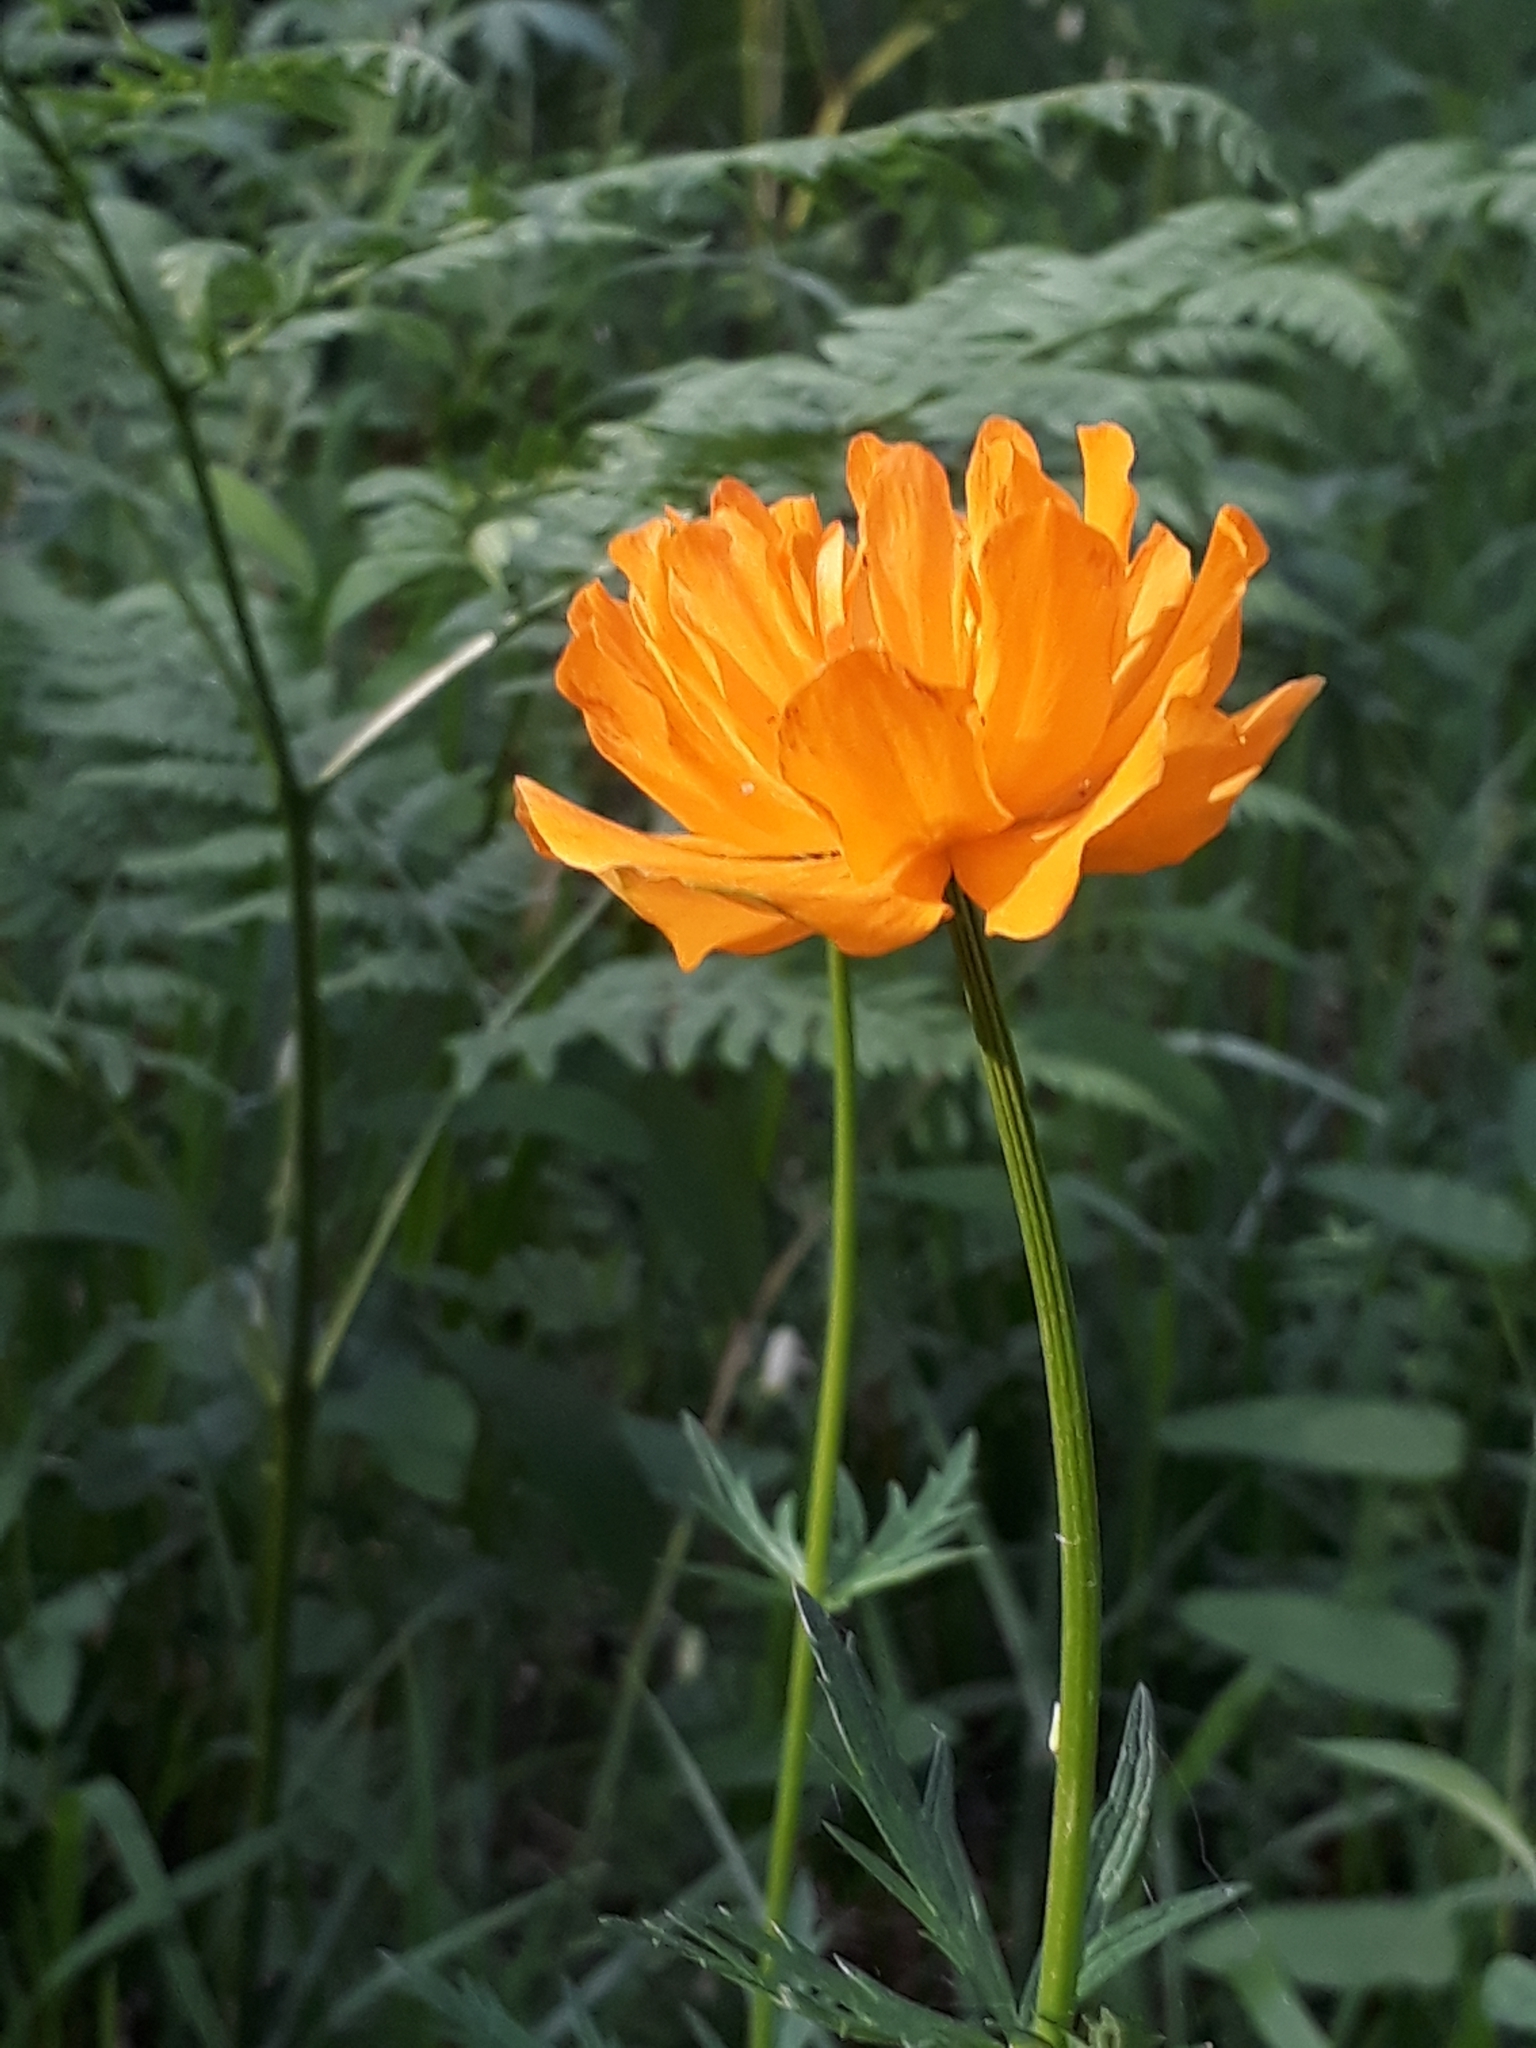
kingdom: Plantae
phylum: Tracheophyta
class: Magnoliopsida
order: Ranunculales
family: Ranunculaceae
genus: Trollius
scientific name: Trollius altaicus
